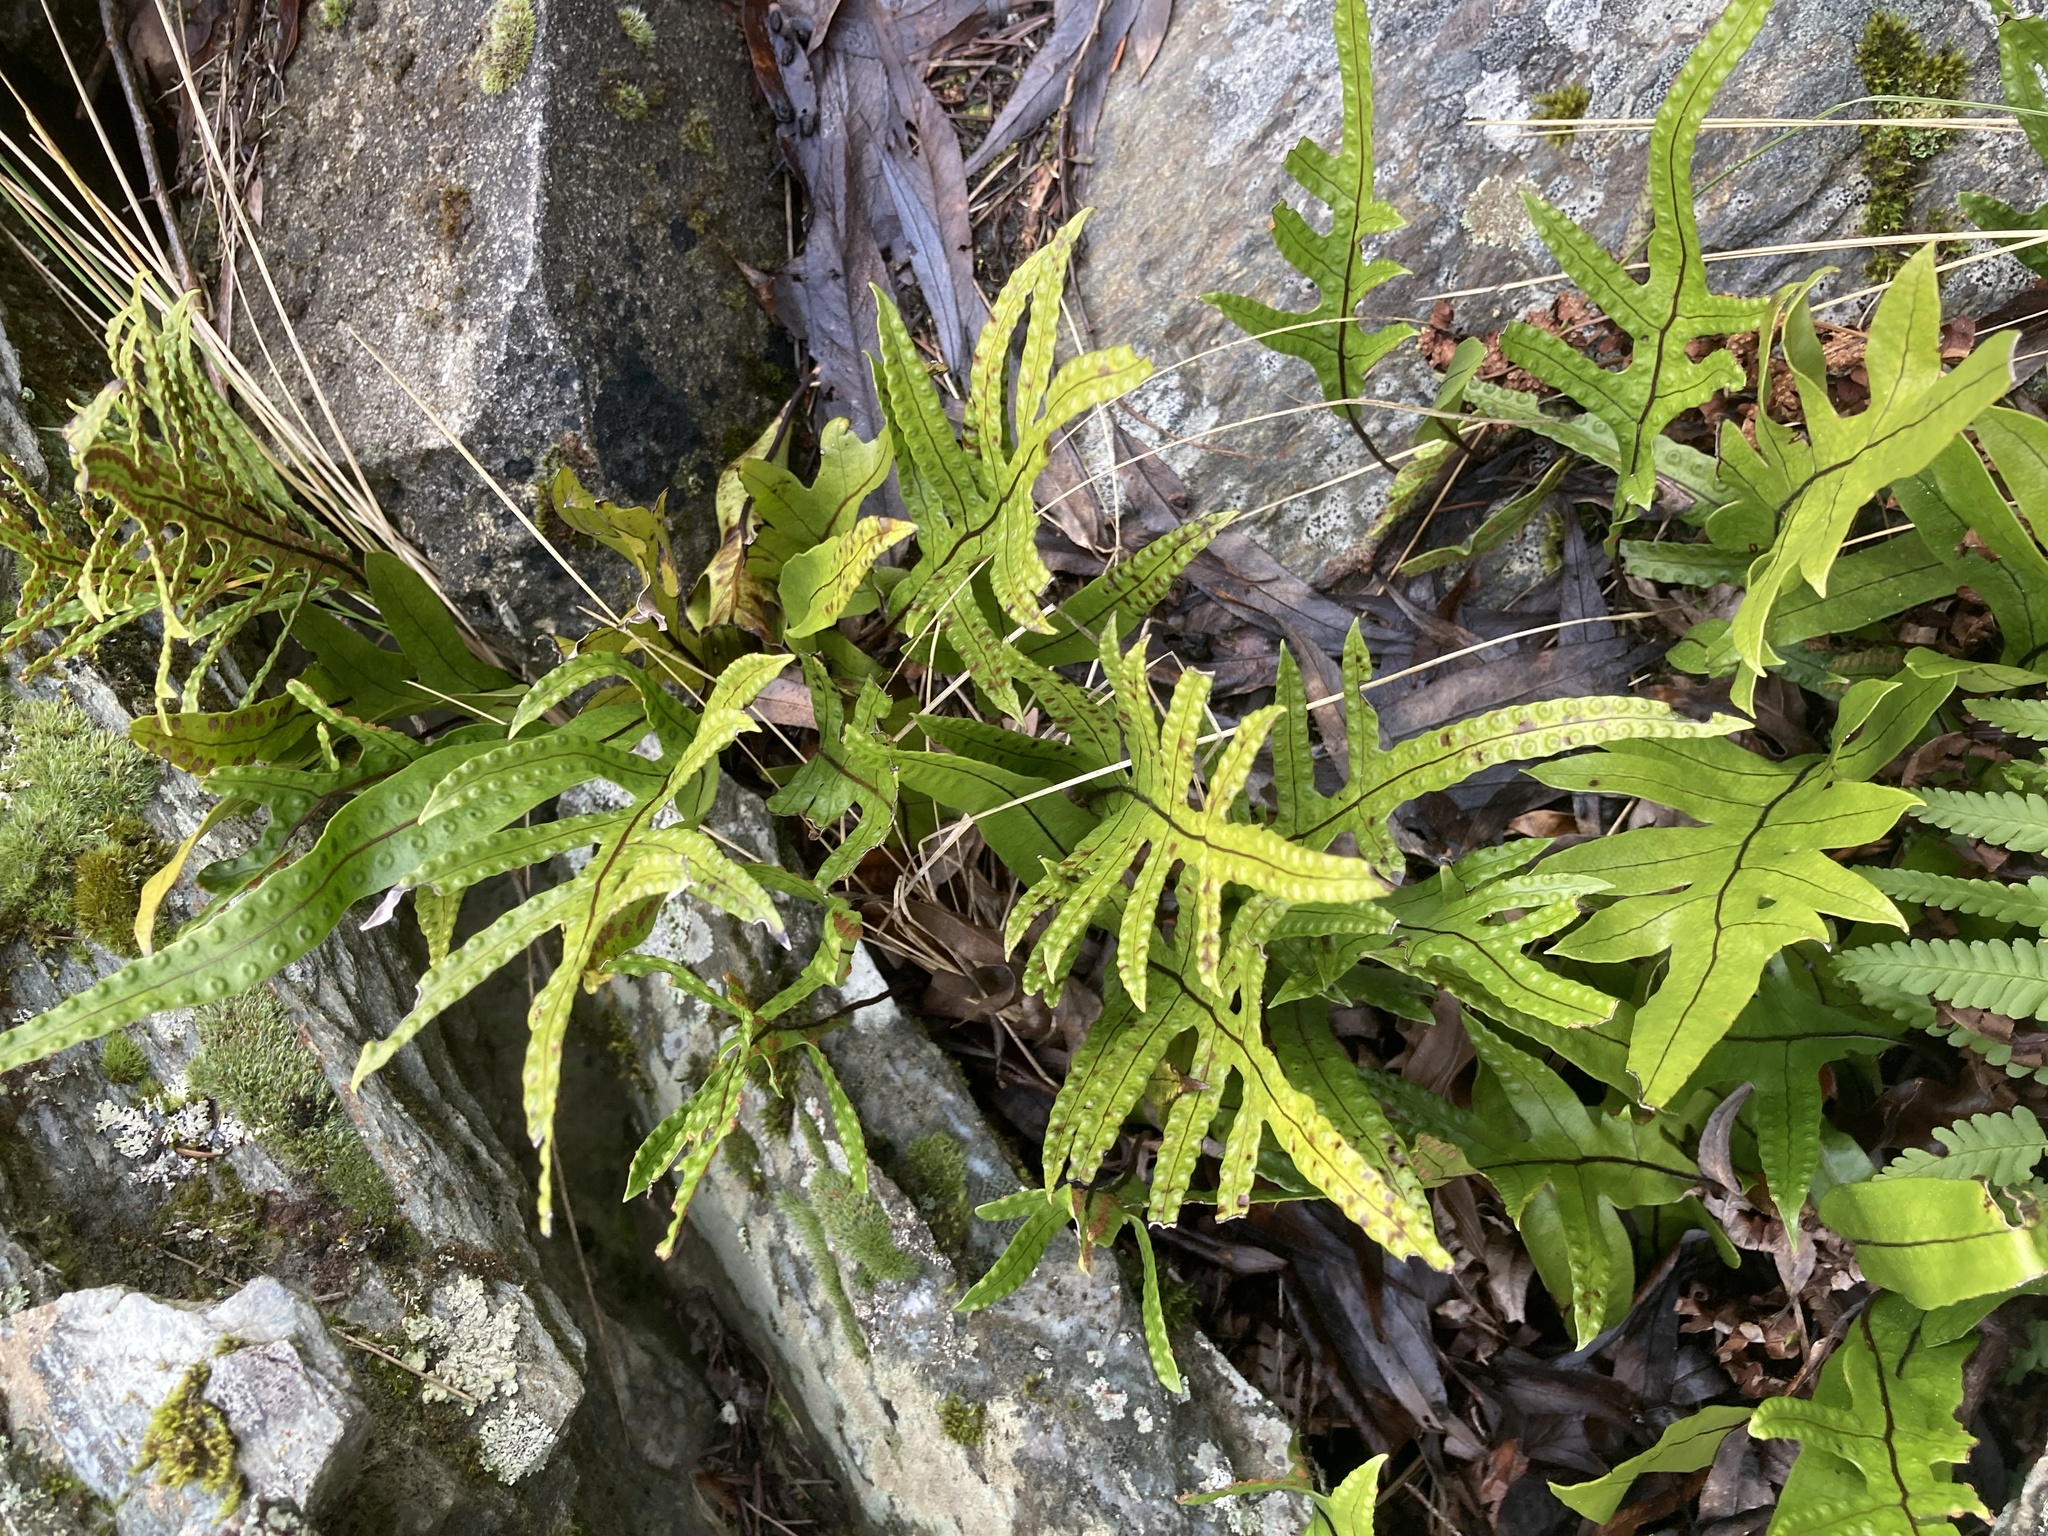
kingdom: Plantae
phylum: Tracheophyta
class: Polypodiopsida
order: Polypodiales
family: Polypodiaceae
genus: Lecanopteris
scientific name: Lecanopteris pustulata
